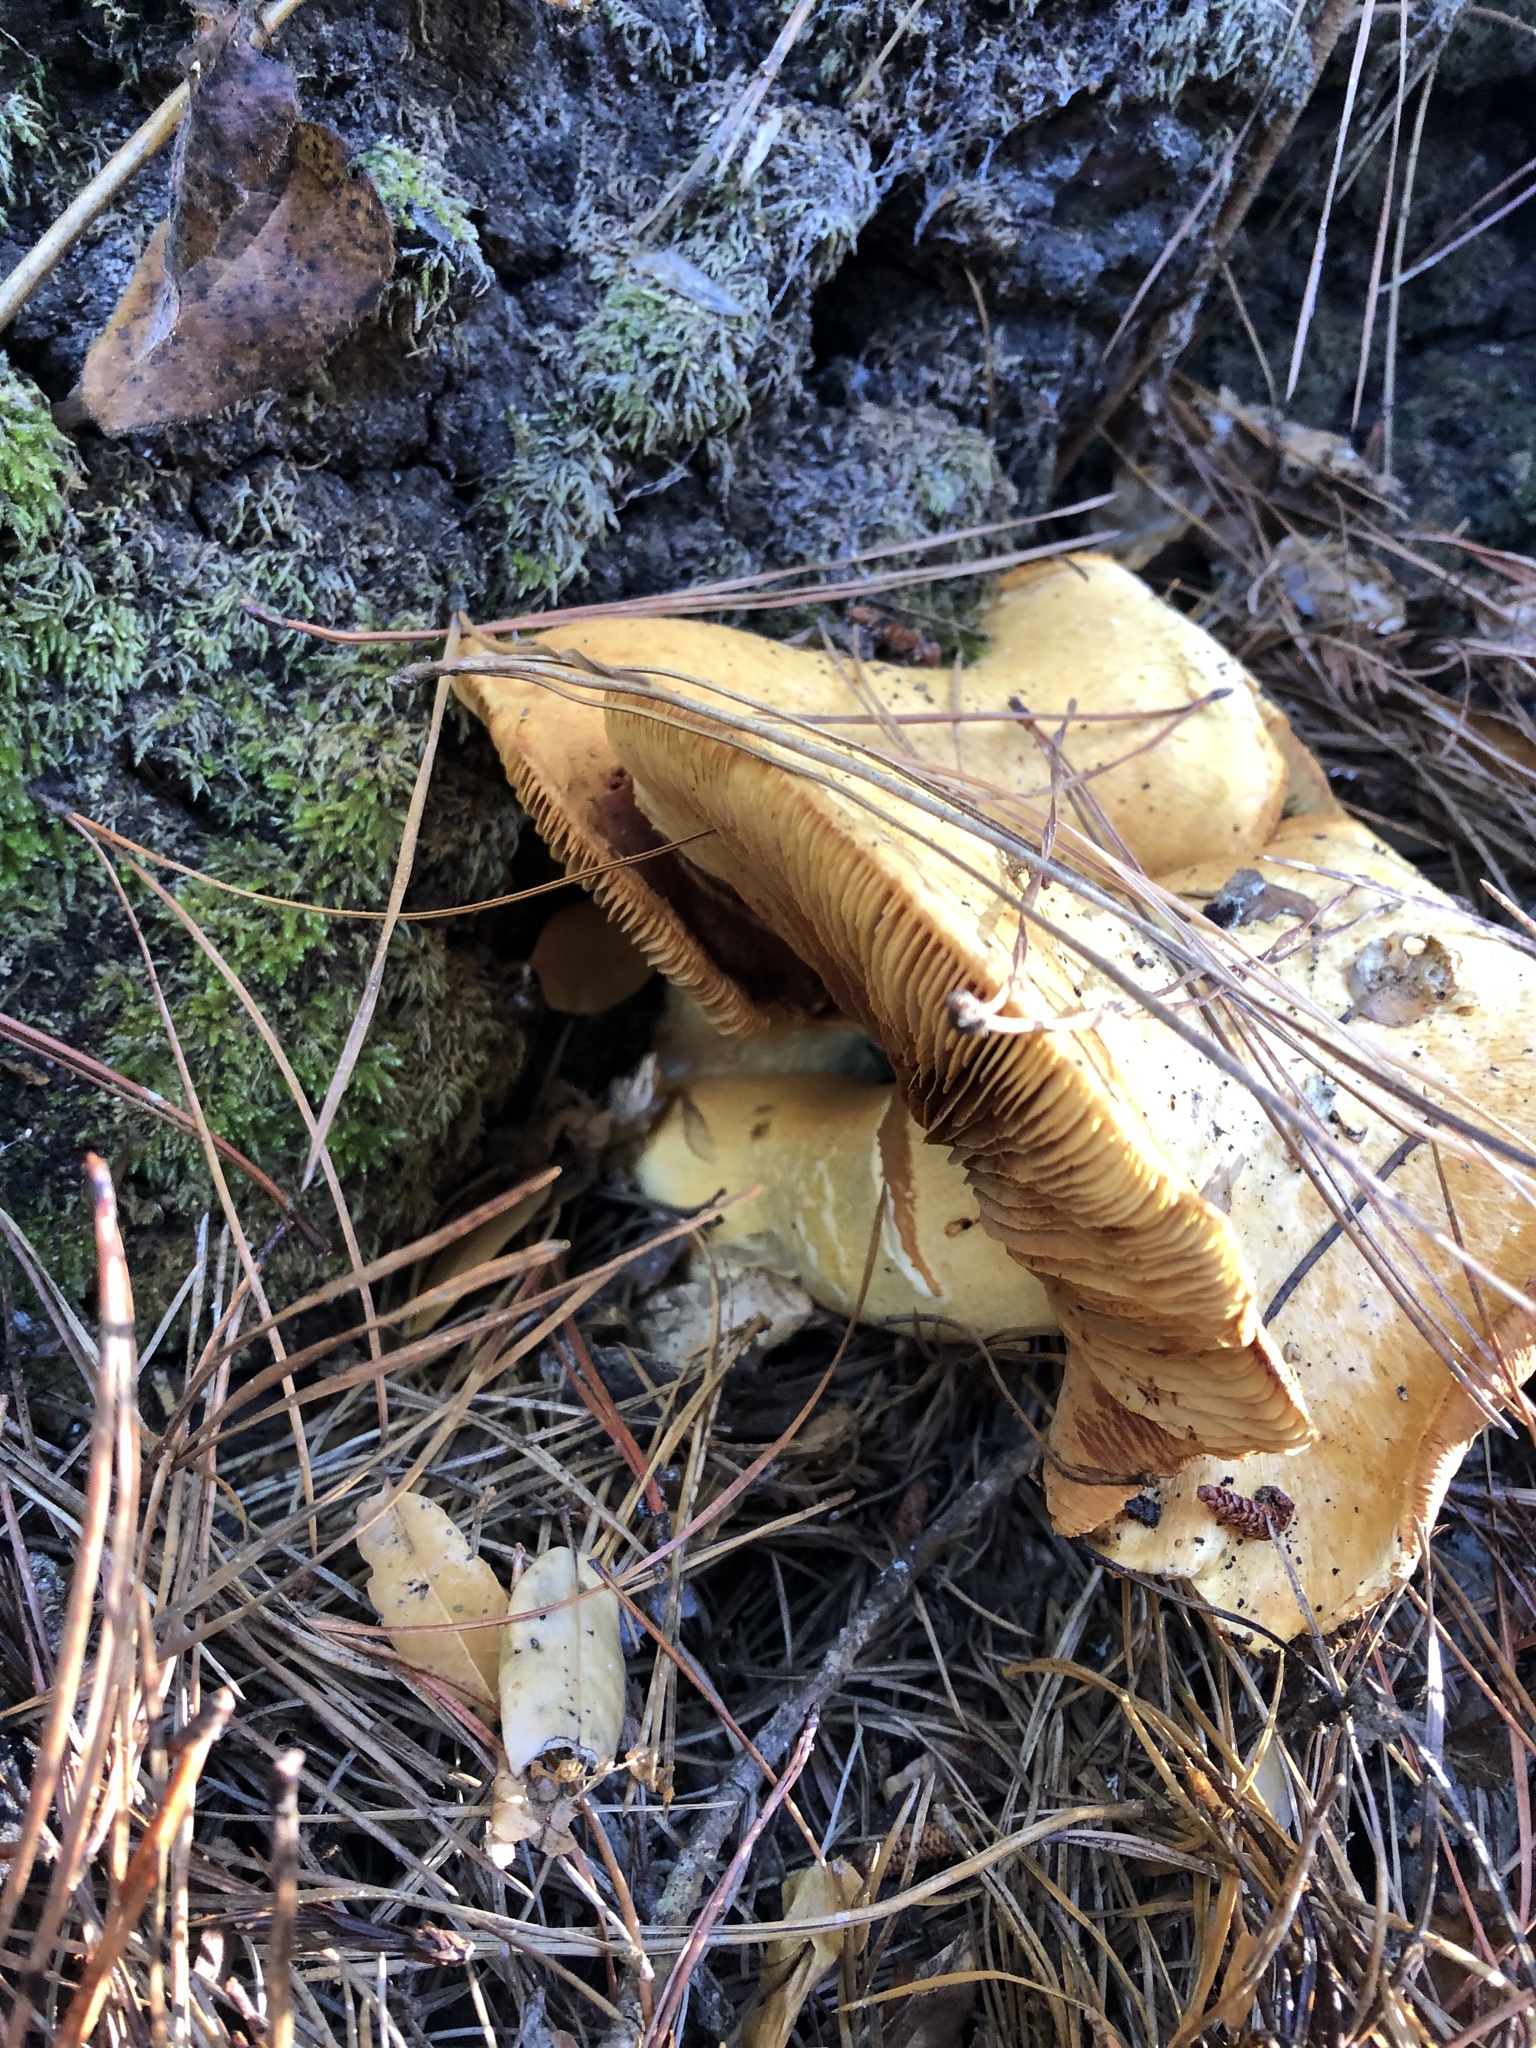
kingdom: Fungi
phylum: Basidiomycota
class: Agaricomycetes
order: Agaricales
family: Hymenogastraceae
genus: Gymnopilus
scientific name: Gymnopilus ventricosus
